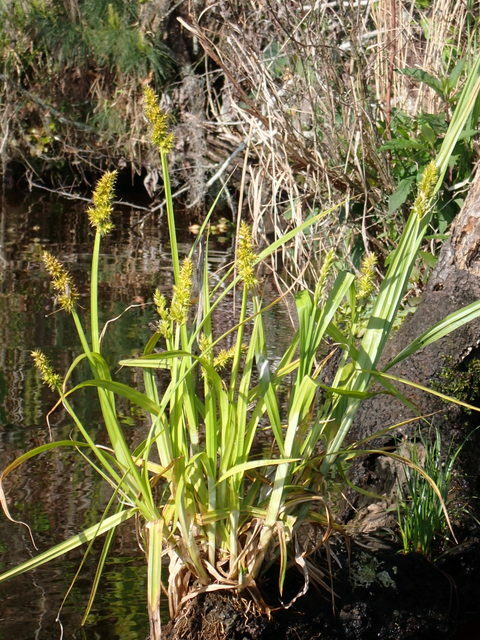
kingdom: Plantae
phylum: Tracheophyta
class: Liliopsida
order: Poales
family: Cyperaceae
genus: Carex
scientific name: Carex stipata
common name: Awl-fruited sedge
